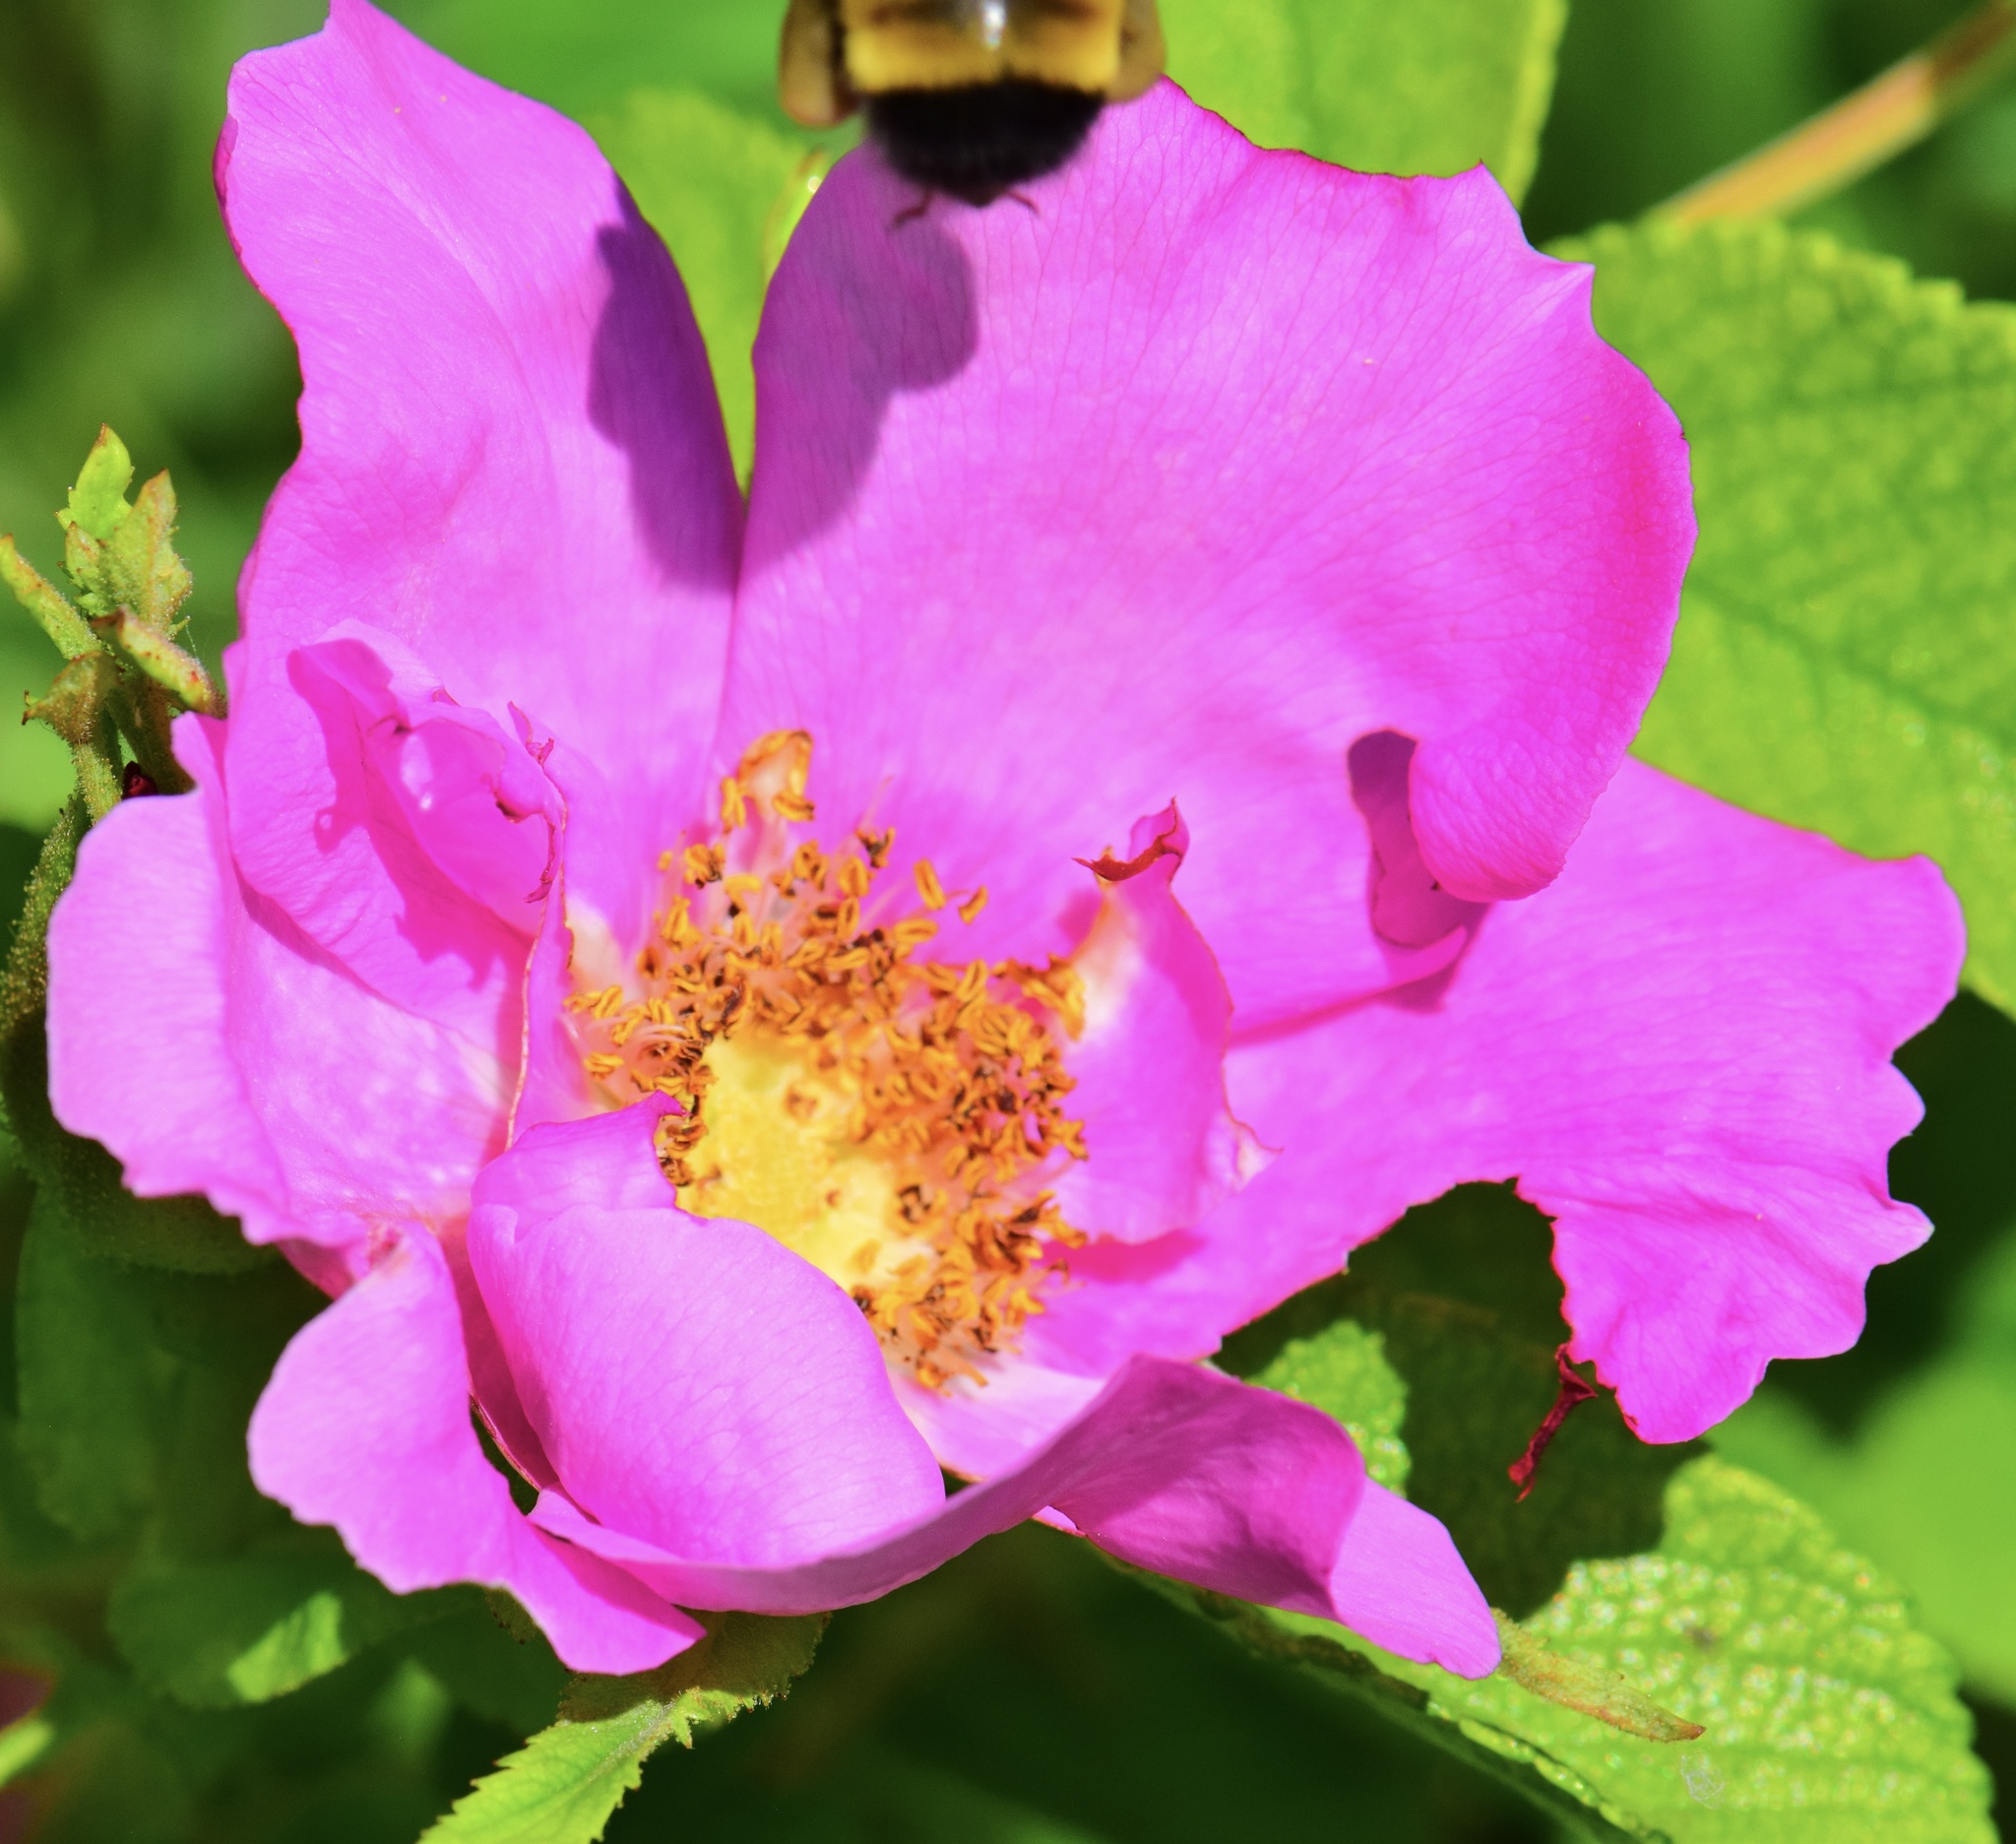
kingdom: Animalia
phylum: Arthropoda
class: Insecta
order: Hymenoptera
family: Apidae
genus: Bombus
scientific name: Bombus terricola
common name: Yellow-banded bumble bee
